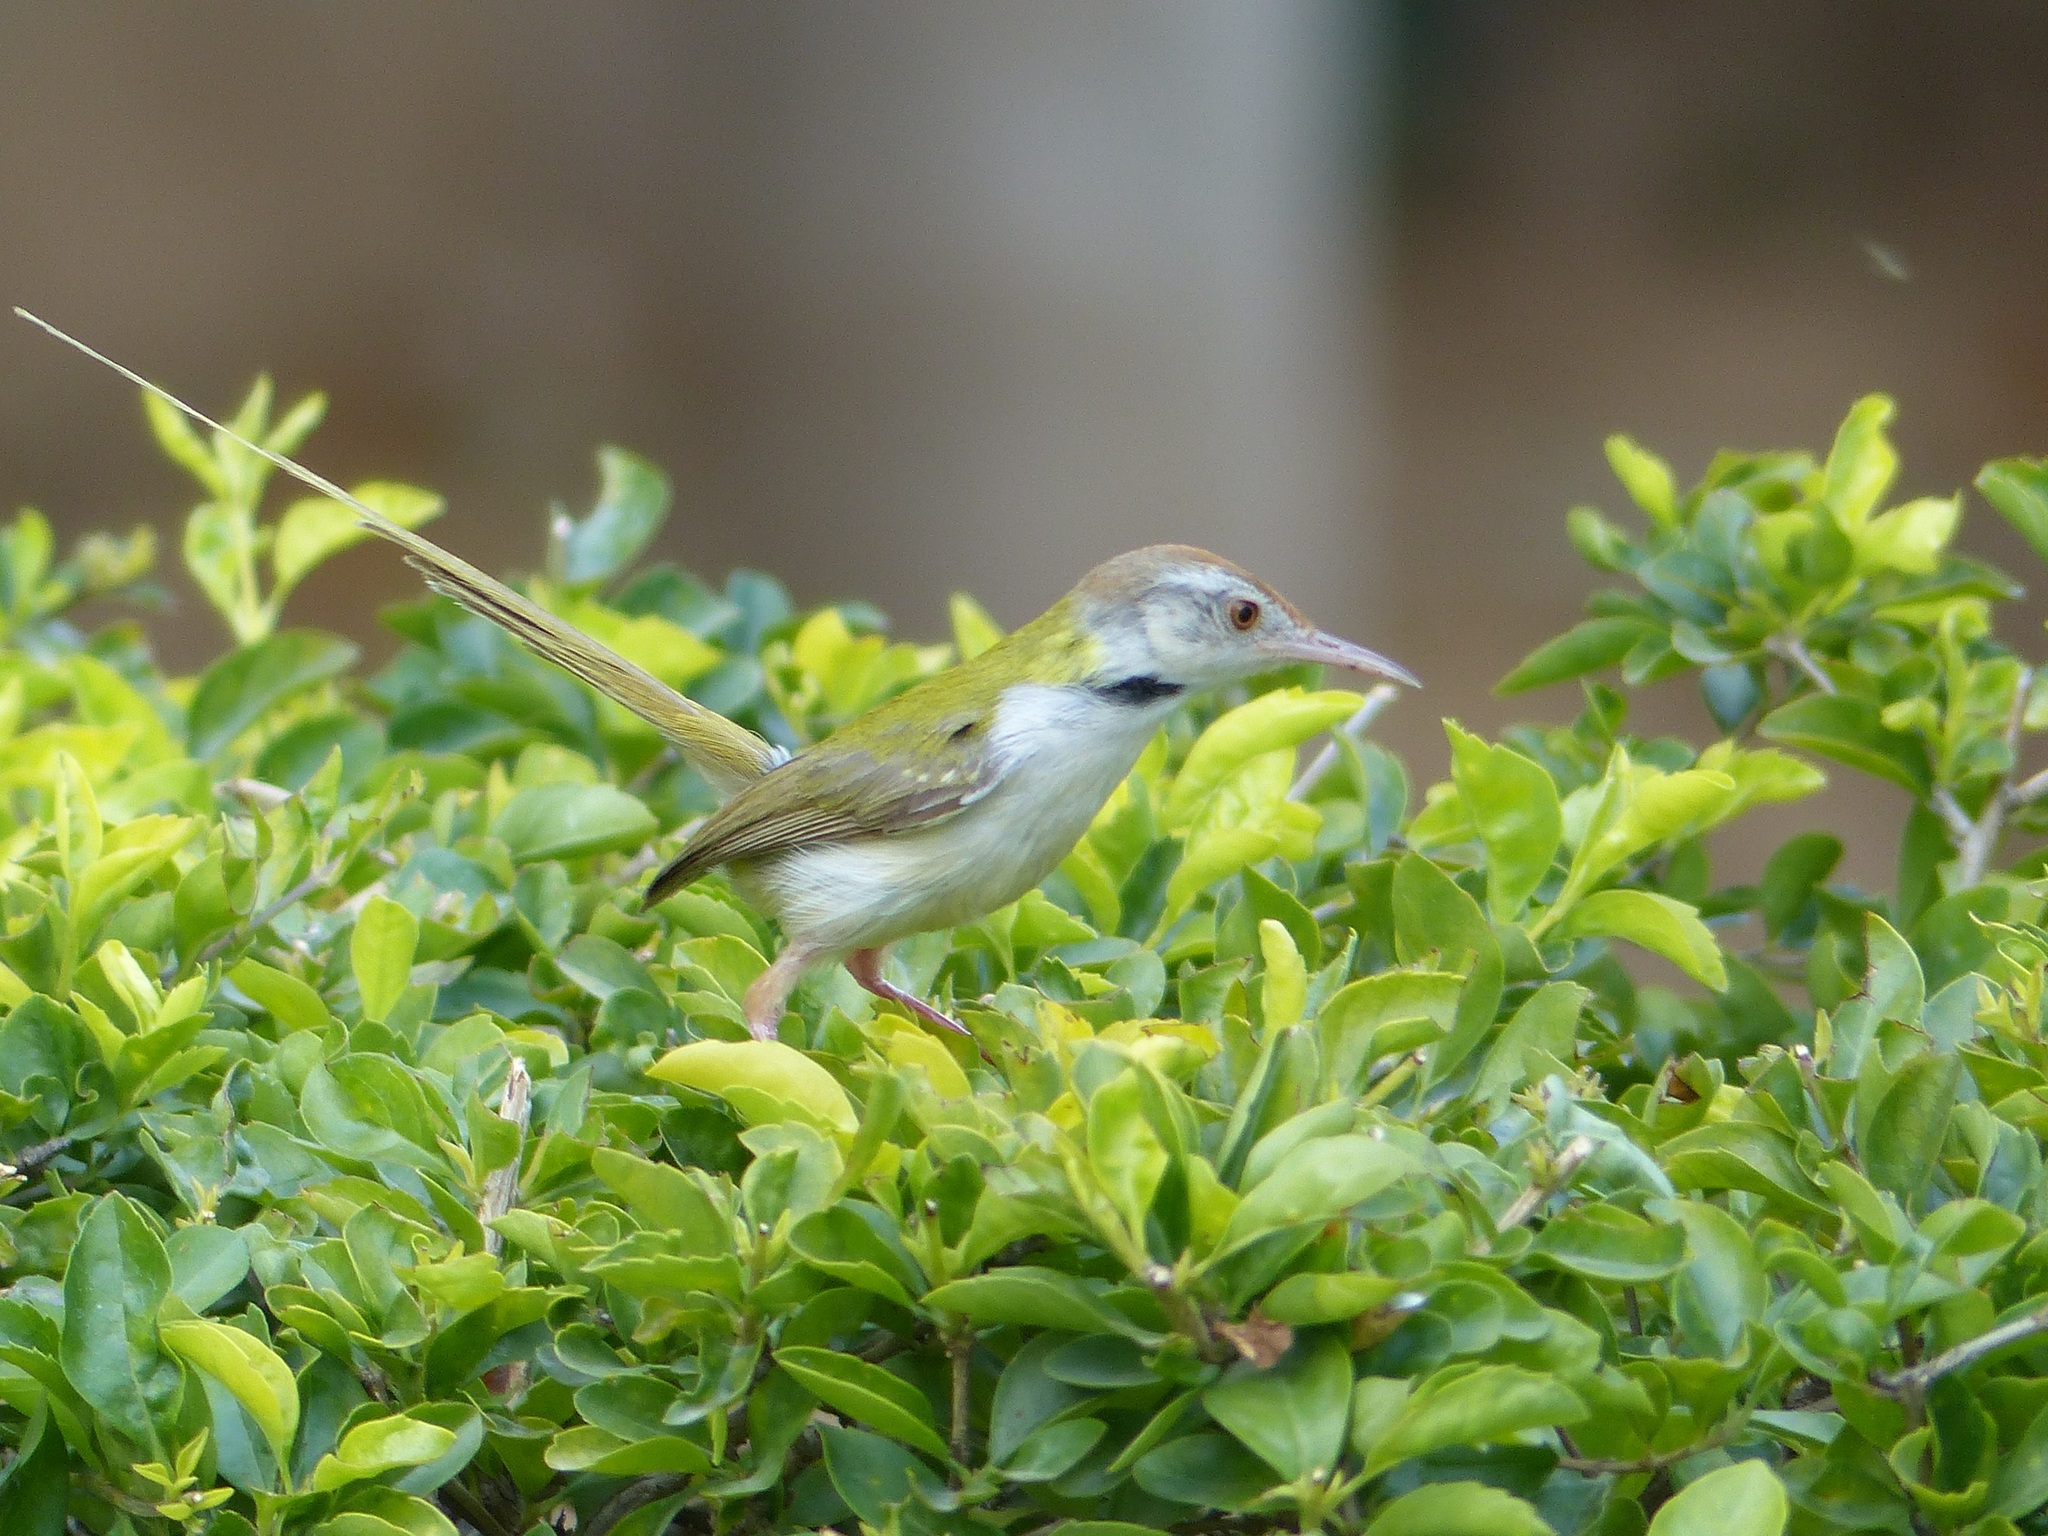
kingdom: Animalia
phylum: Chordata
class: Aves
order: Passeriformes
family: Cisticolidae
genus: Orthotomus
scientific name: Orthotomus sutorius
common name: Common tailorbird
